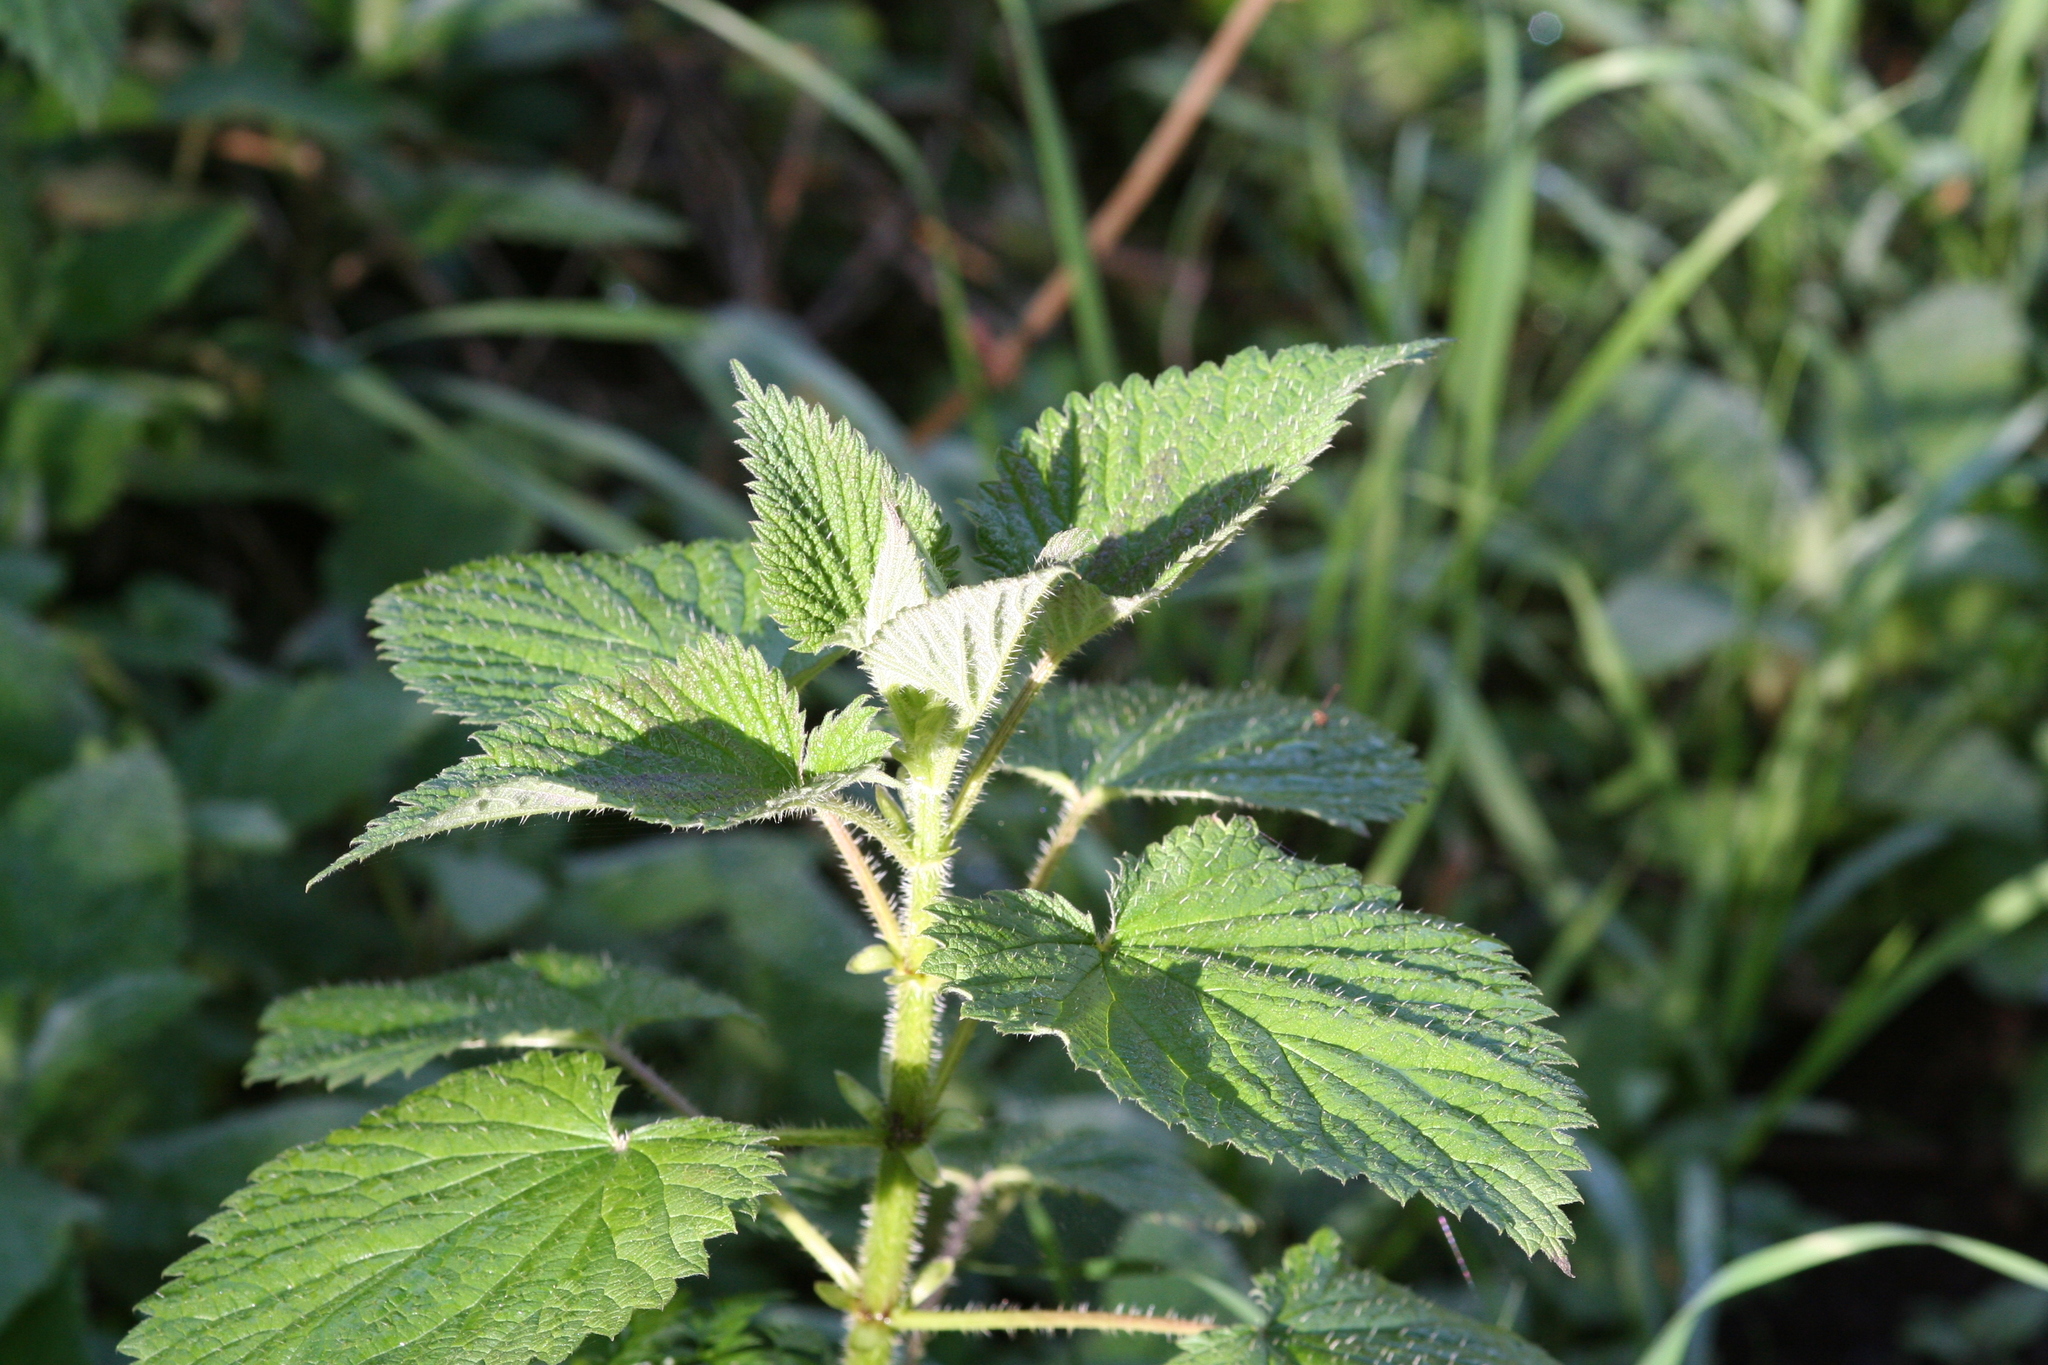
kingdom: Plantae
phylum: Tracheophyta
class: Magnoliopsida
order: Rosales
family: Urticaceae
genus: Urtica
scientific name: Urtica dioica
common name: Common nettle
